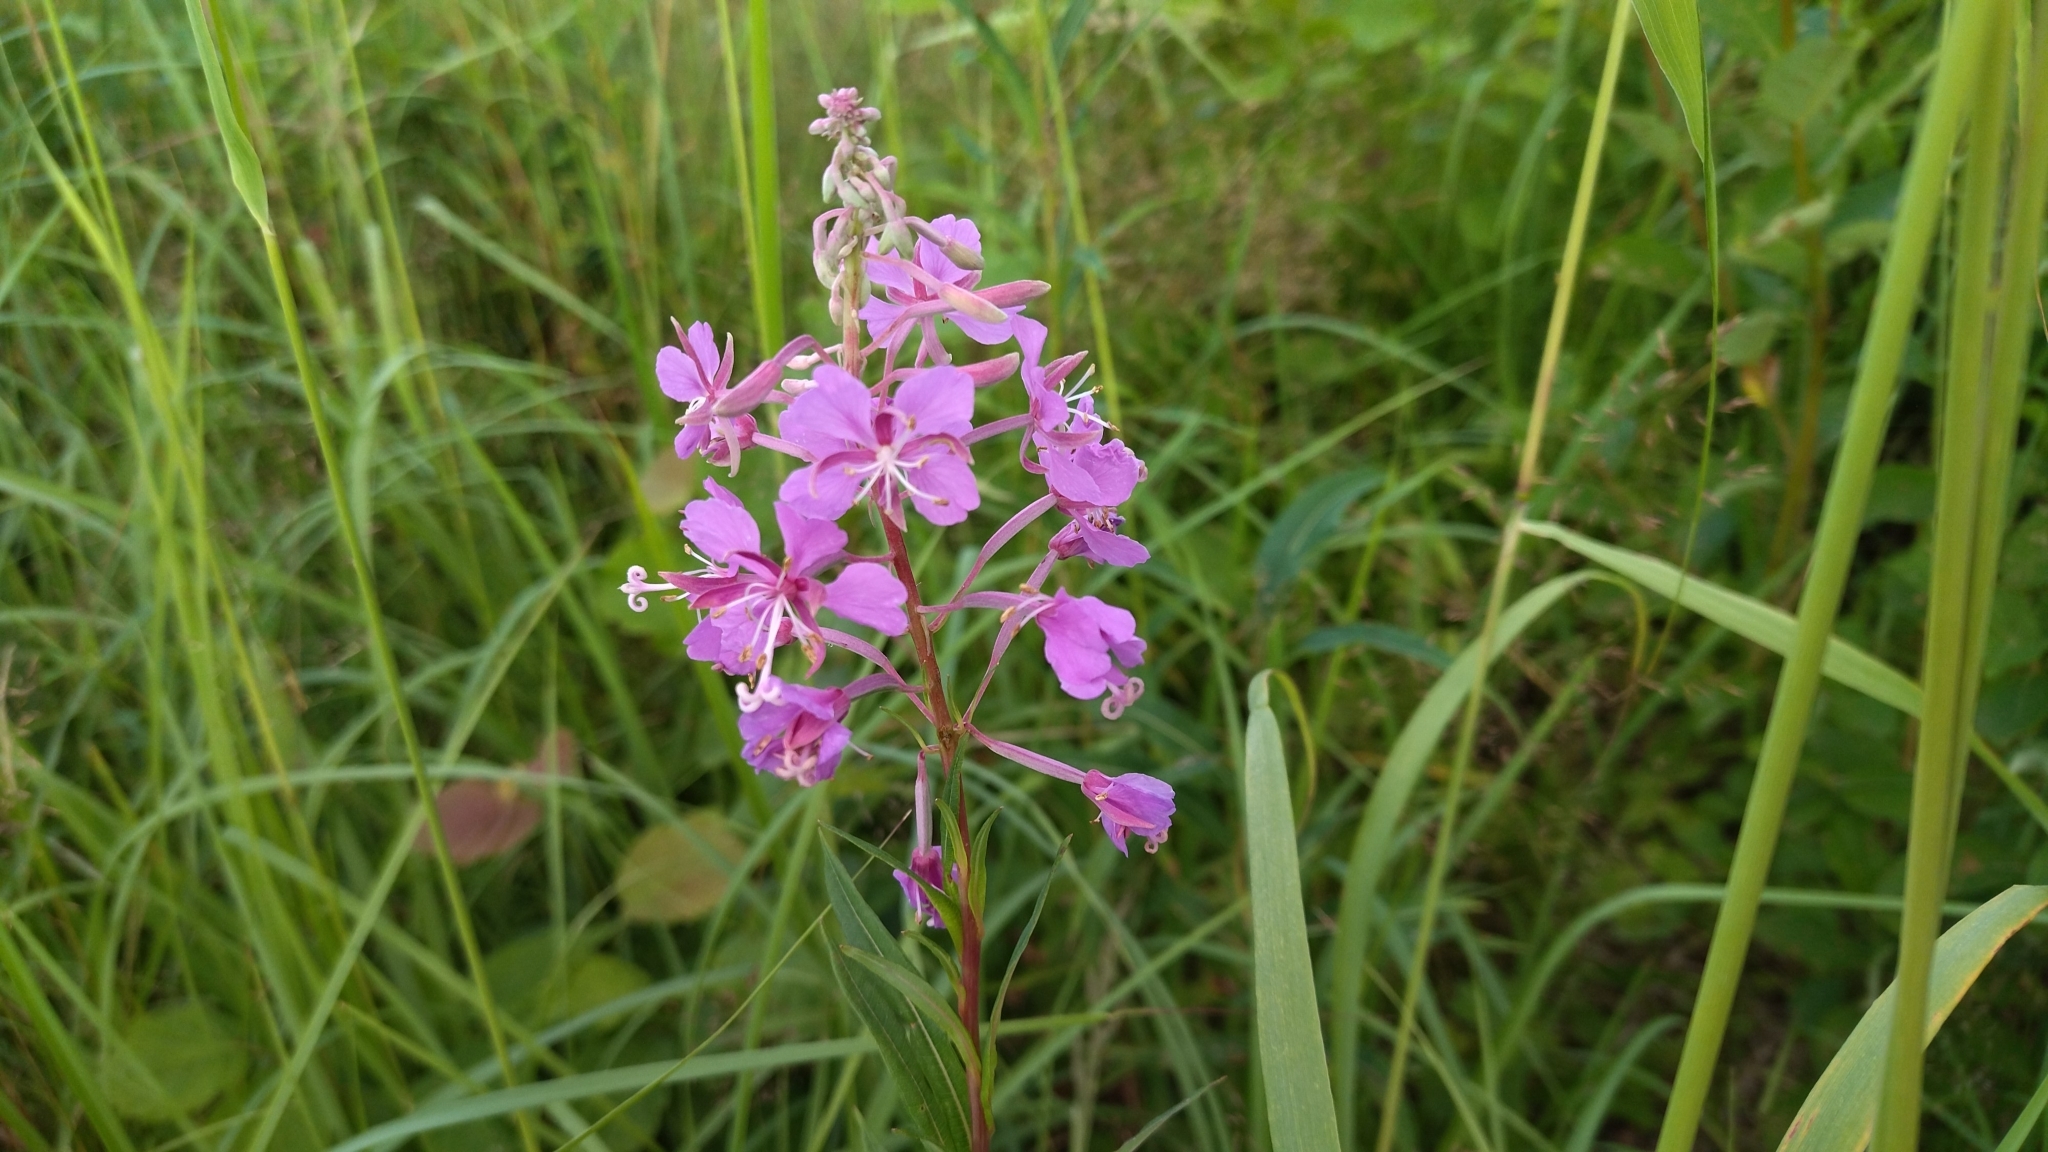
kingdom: Plantae
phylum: Tracheophyta
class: Magnoliopsida
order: Myrtales
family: Onagraceae
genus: Chamaenerion
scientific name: Chamaenerion angustifolium
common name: Fireweed
